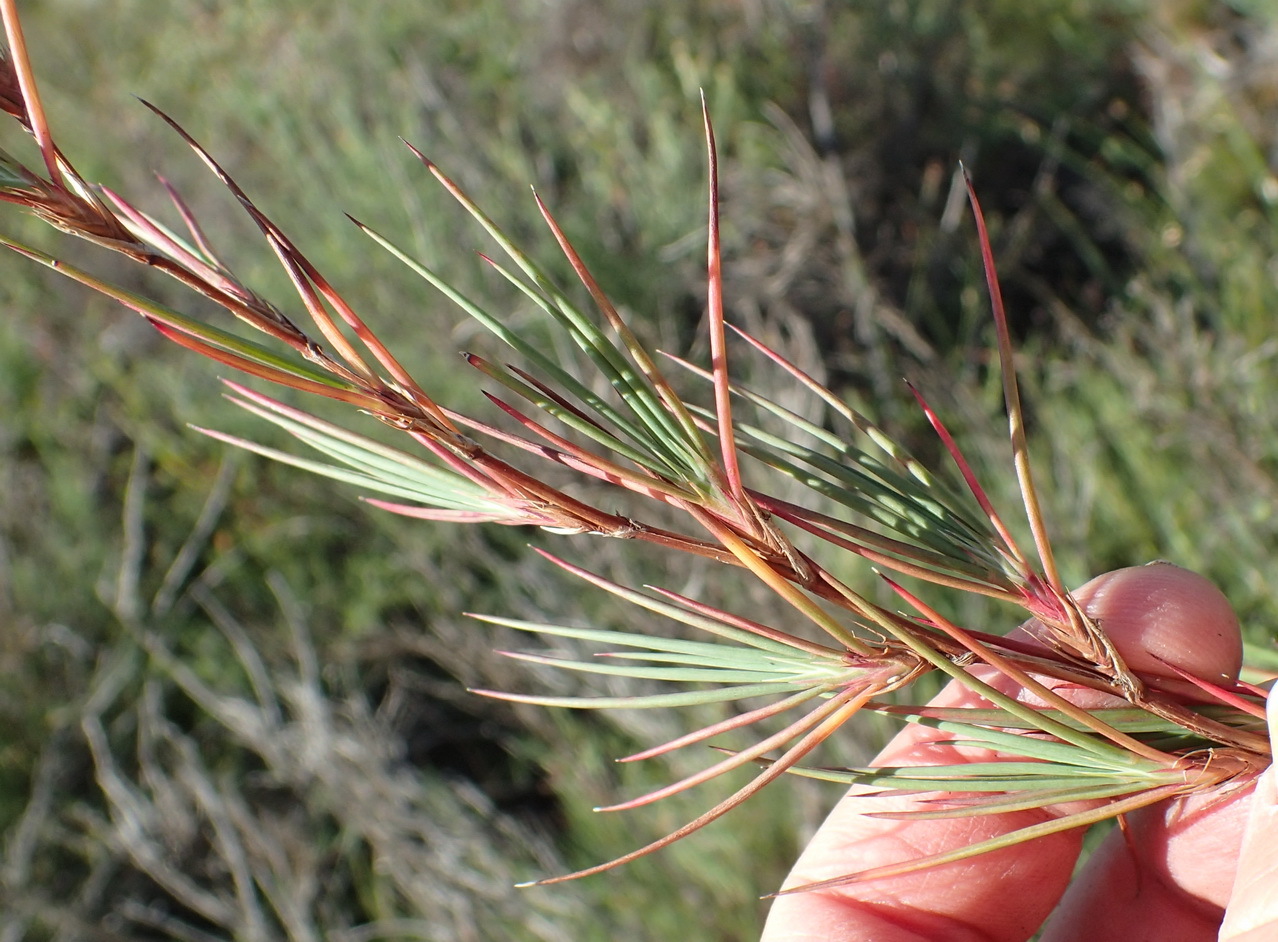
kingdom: Plantae
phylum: Tracheophyta
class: Magnoliopsida
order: Rosales
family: Rosaceae
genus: Cliffortia
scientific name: Cliffortia aculeata
